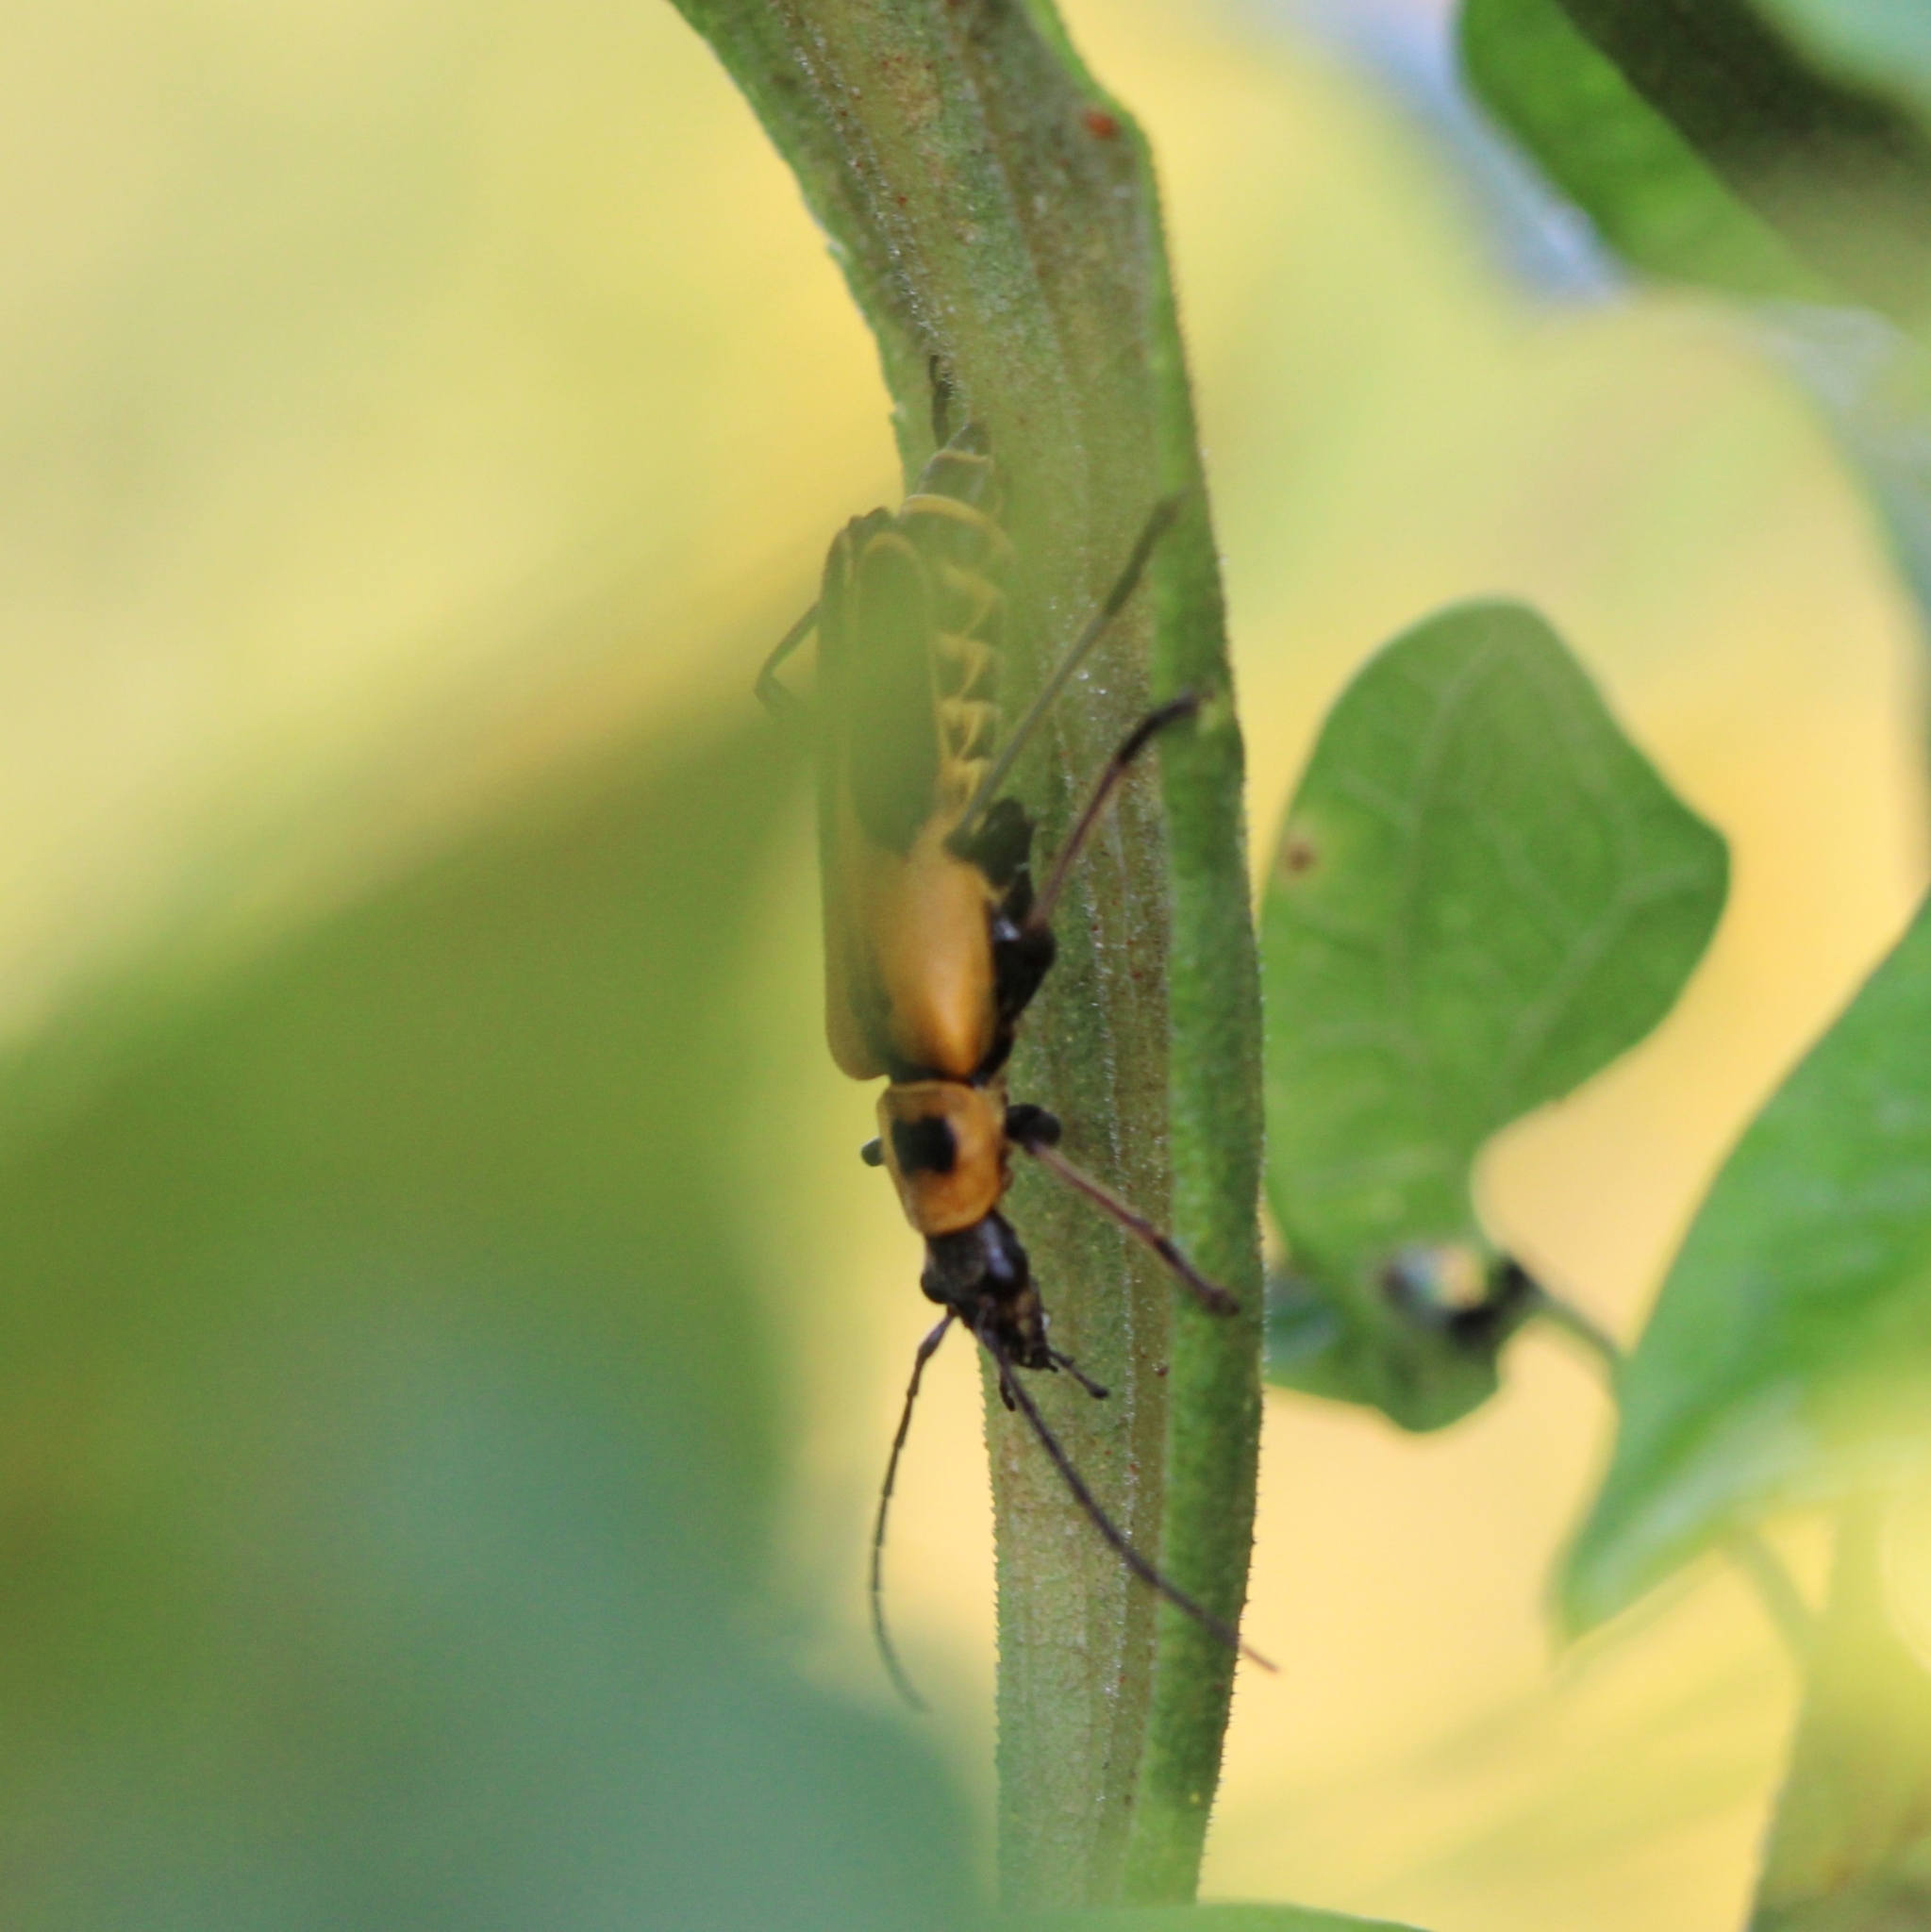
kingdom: Animalia
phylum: Arthropoda
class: Insecta
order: Coleoptera
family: Cantharidae
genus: Chauliognathus
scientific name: Chauliognathus pensylvanicus
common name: Goldenrod soldier beetle
